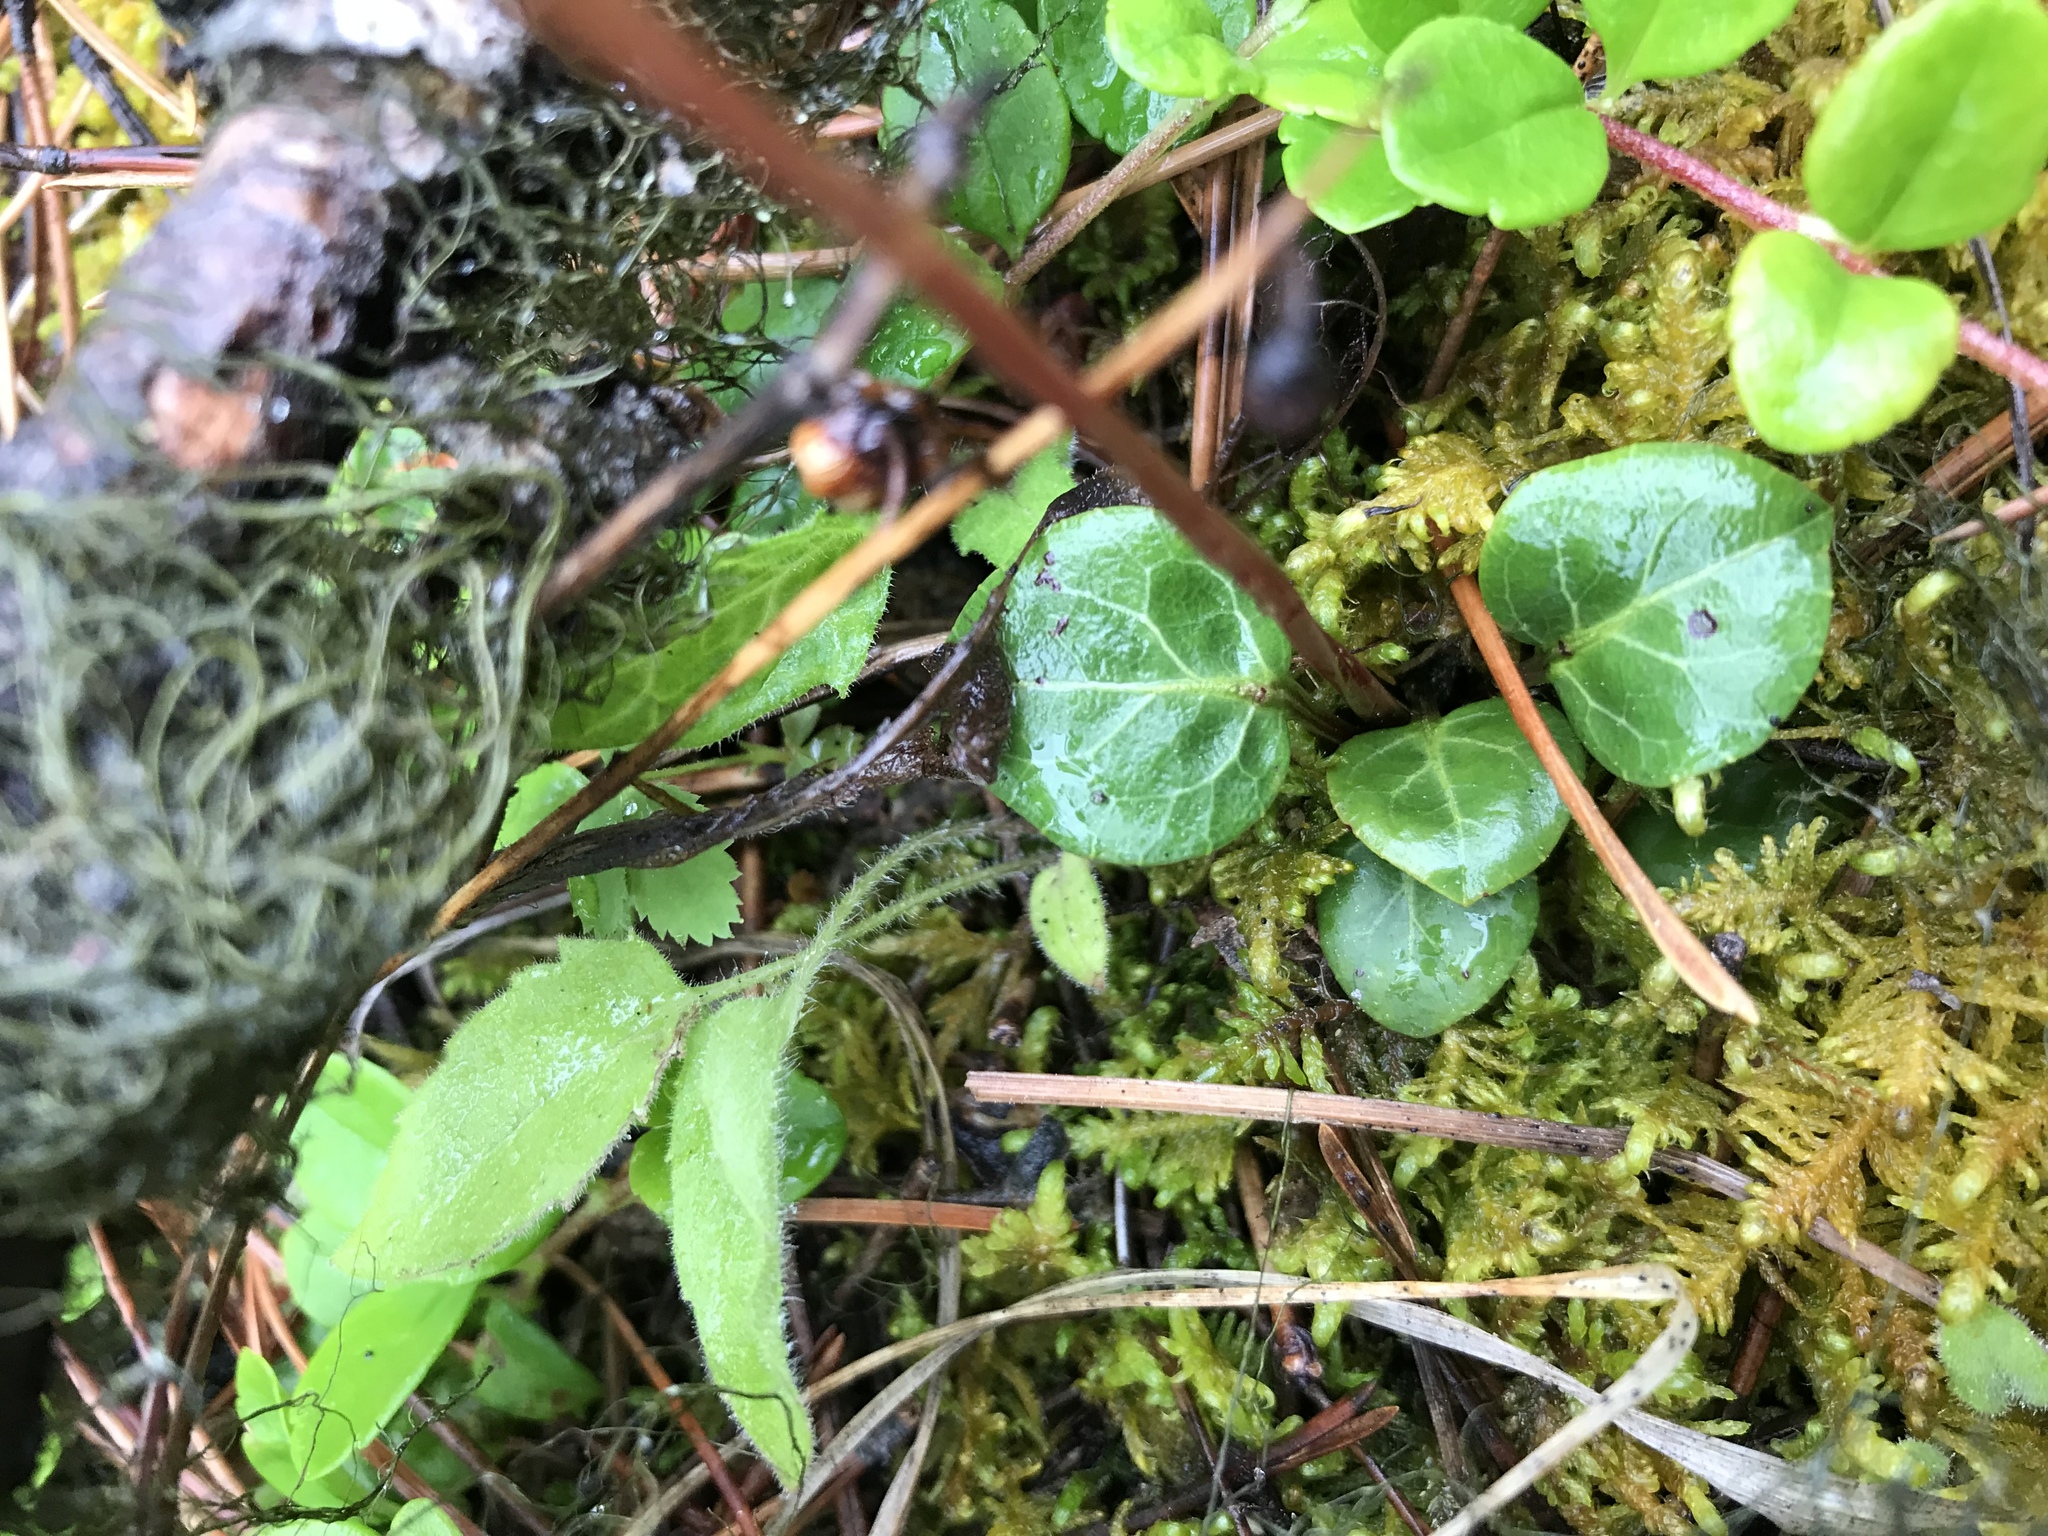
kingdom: Plantae
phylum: Tracheophyta
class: Magnoliopsida
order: Ericales
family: Ericaceae
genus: Pyrola
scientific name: Pyrola chlorantha
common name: Green wintergreen
